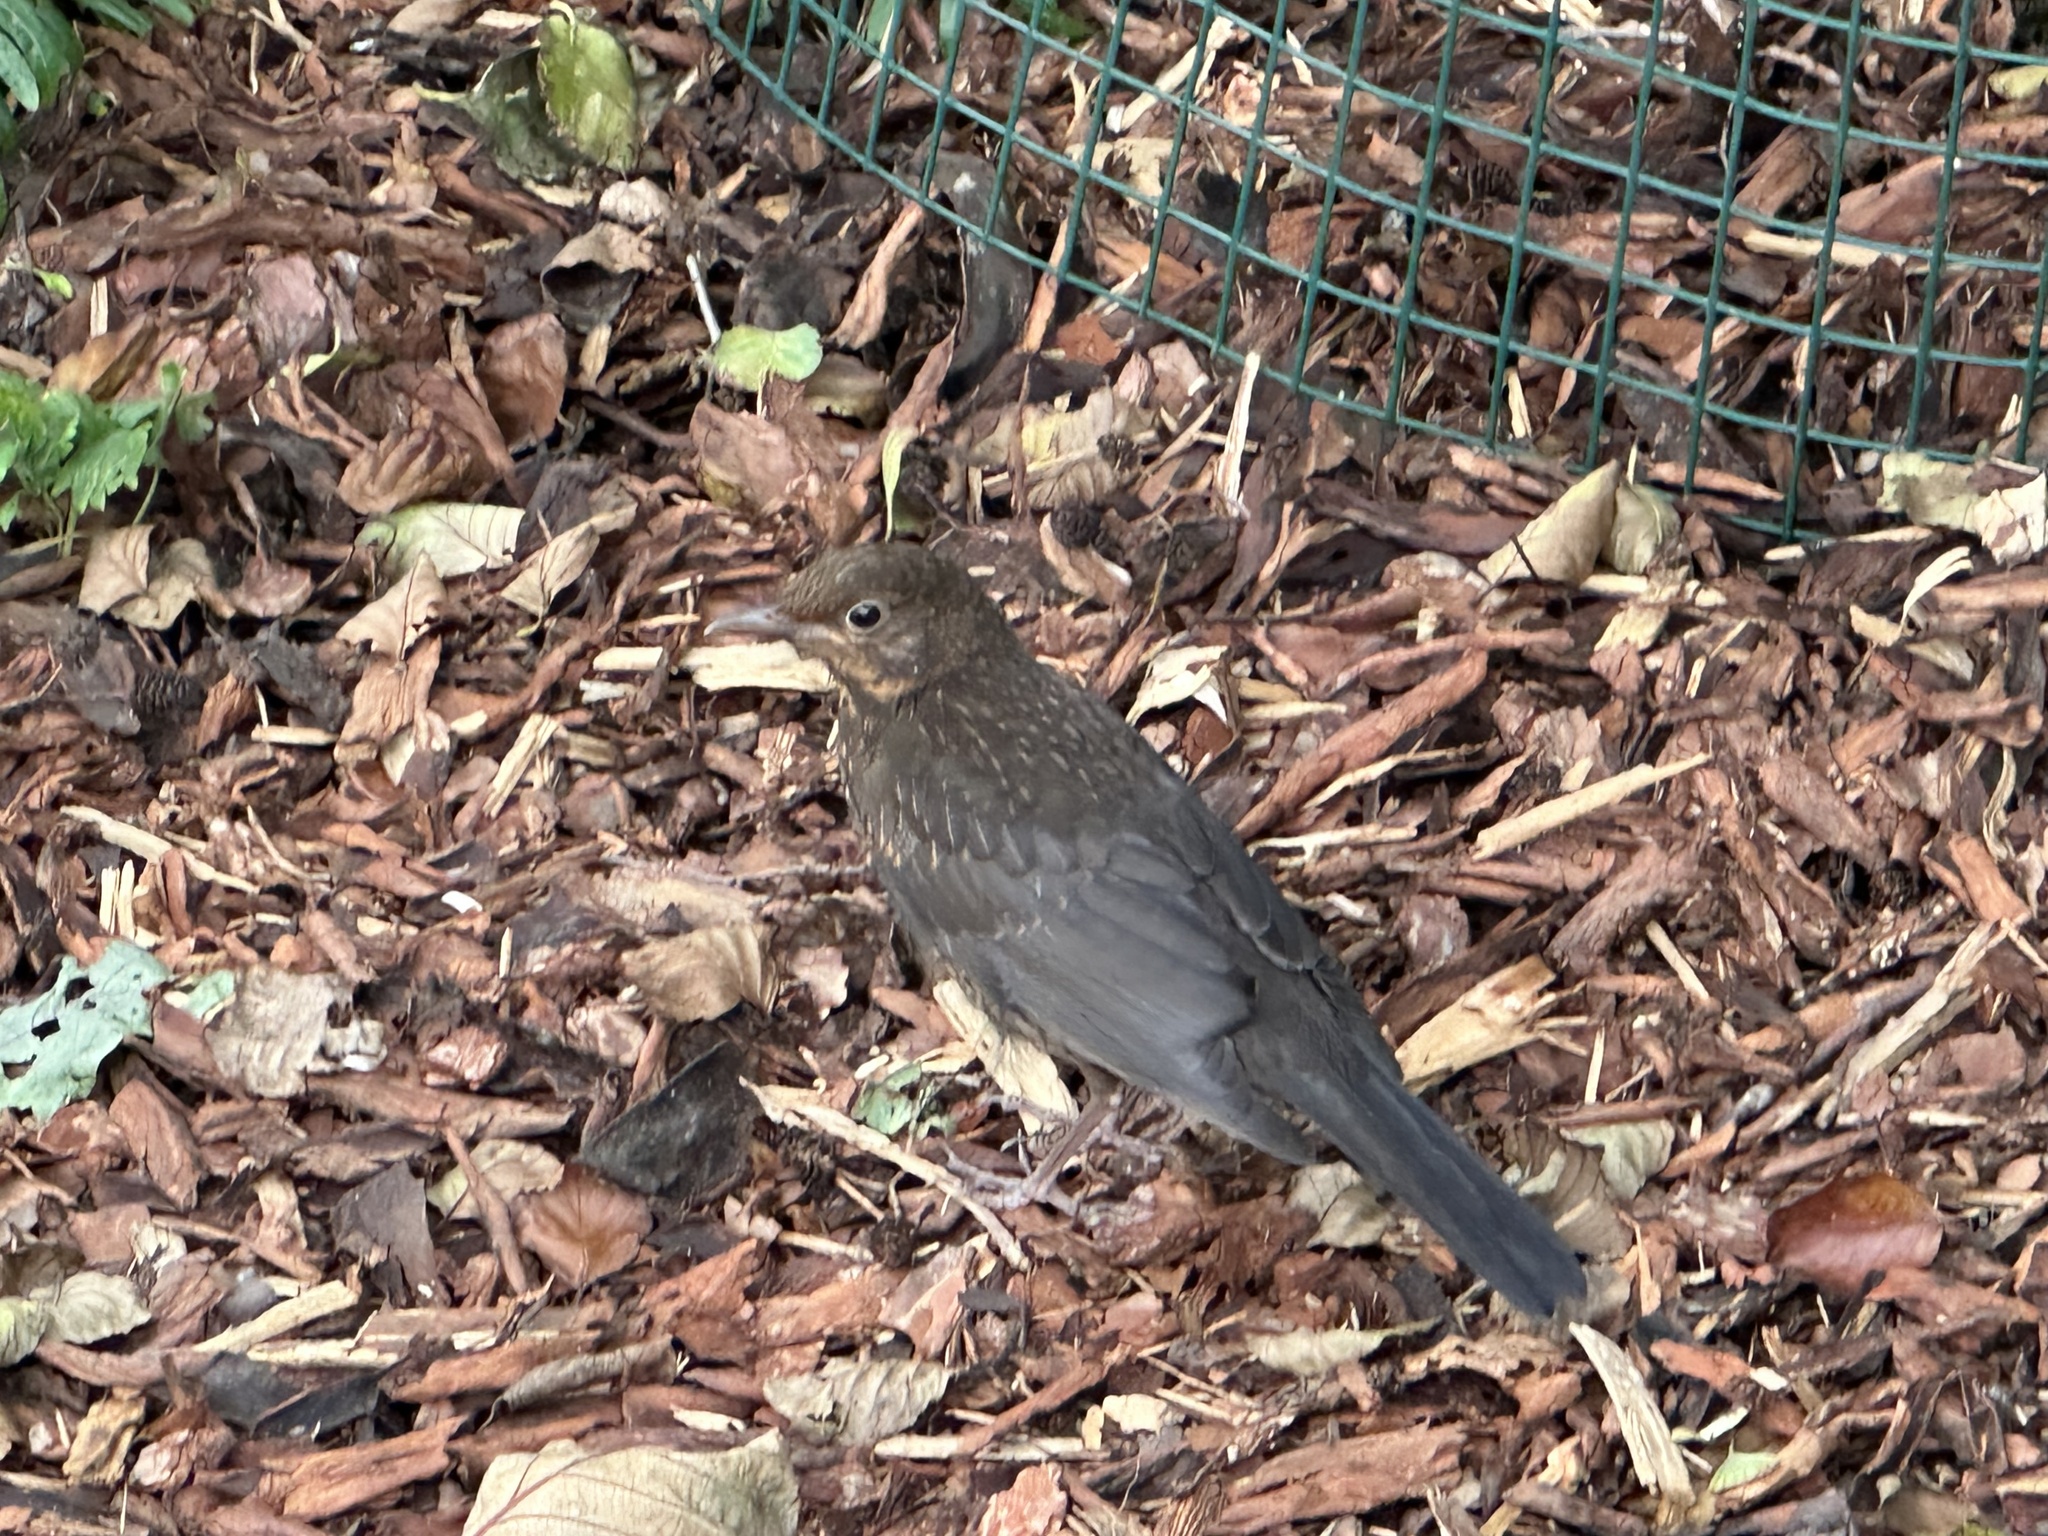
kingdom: Animalia
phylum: Chordata
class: Aves
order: Passeriformes
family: Turdidae
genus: Turdus
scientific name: Turdus merula
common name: Common blackbird
